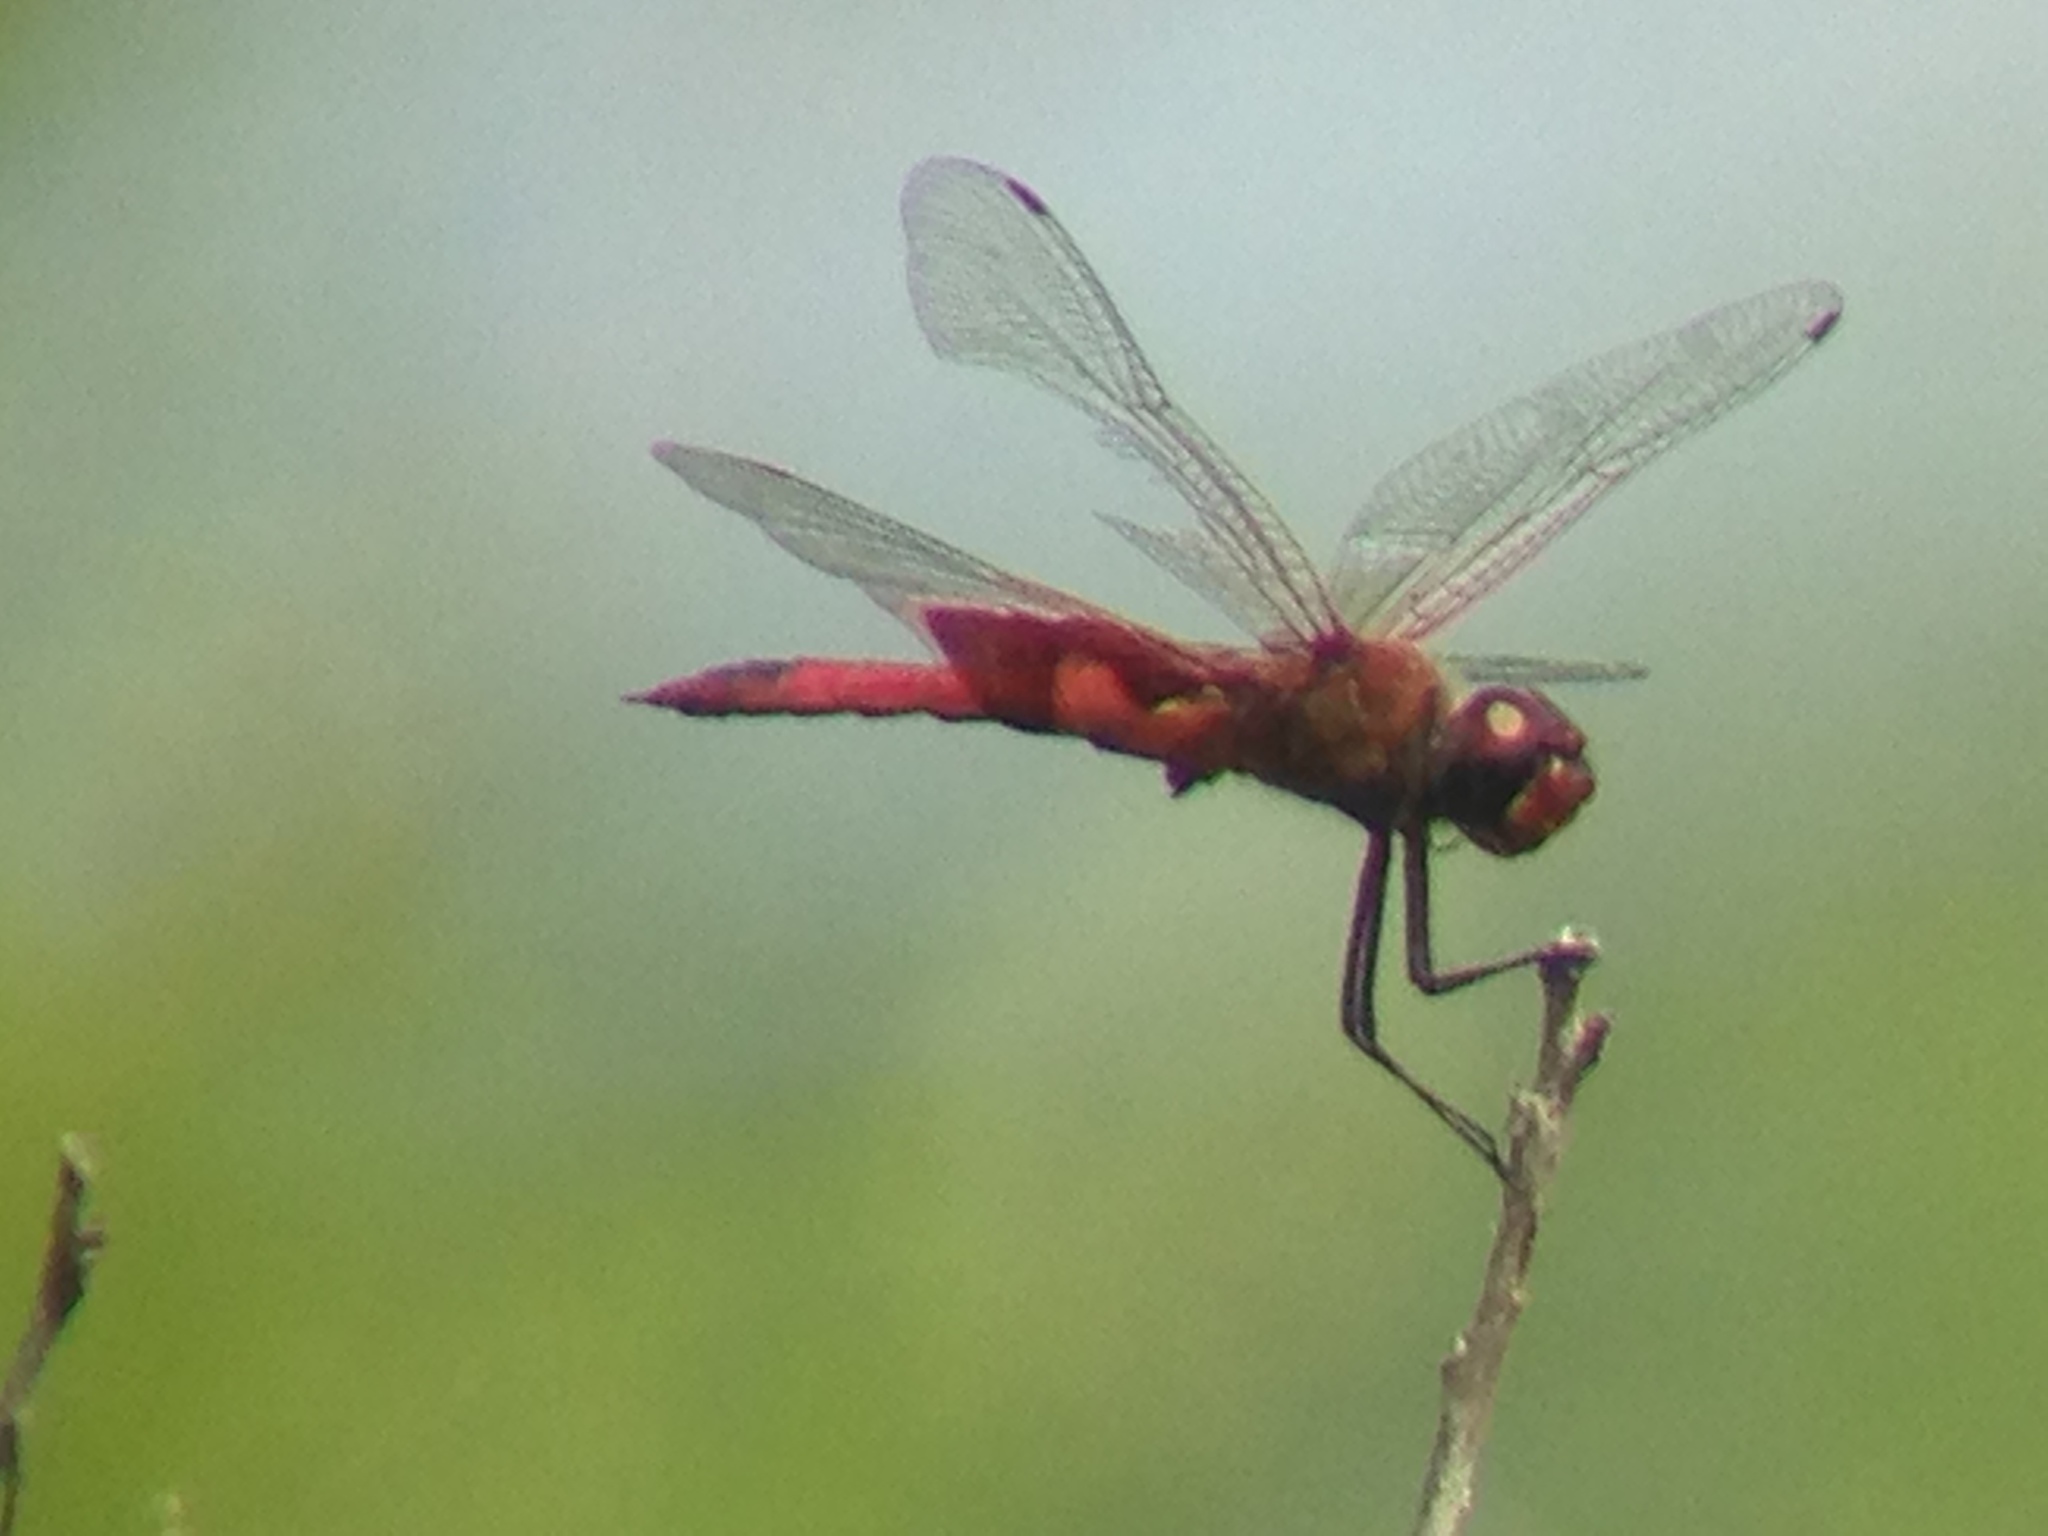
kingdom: Animalia
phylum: Arthropoda
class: Insecta
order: Odonata
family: Libellulidae
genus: Tramea
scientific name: Tramea onusta
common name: Red saddlebags
